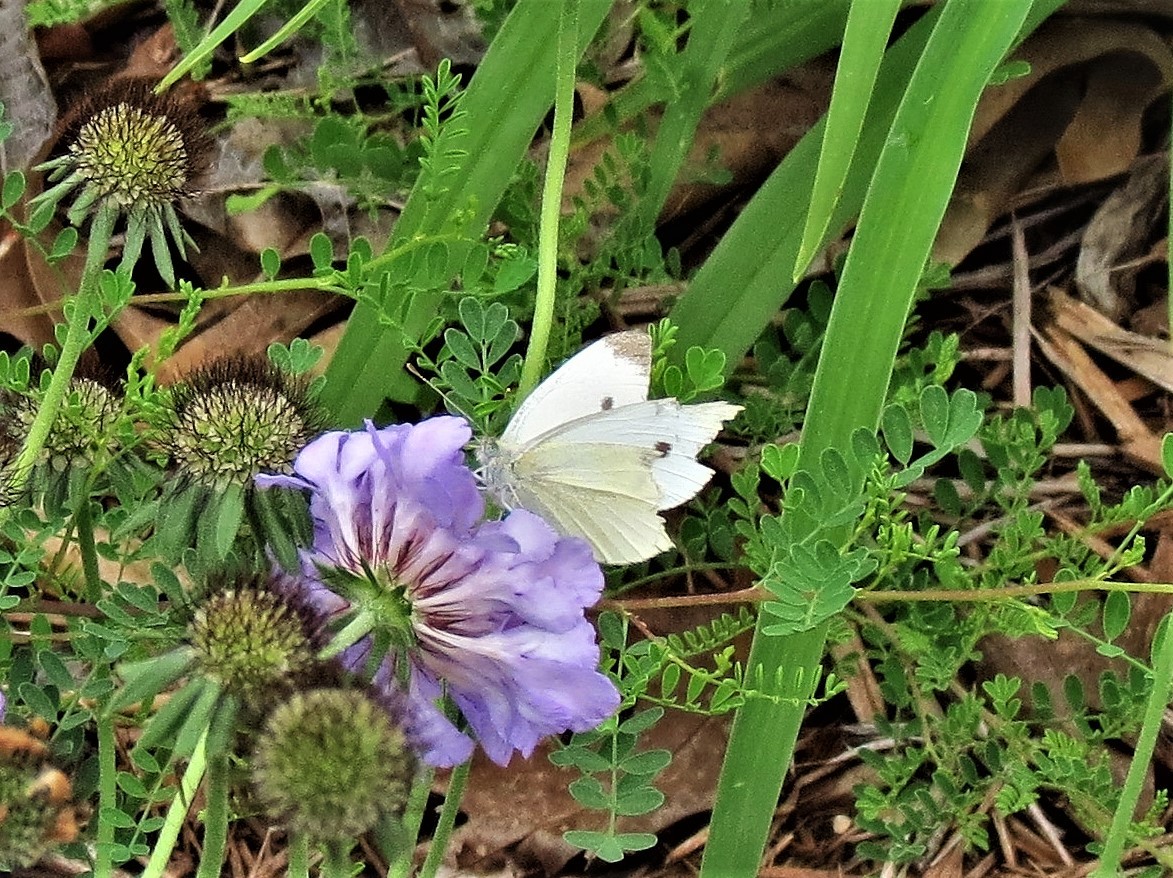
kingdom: Animalia
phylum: Arthropoda
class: Insecta
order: Lepidoptera
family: Pieridae
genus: Pieris
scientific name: Pieris rapae
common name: Small white
